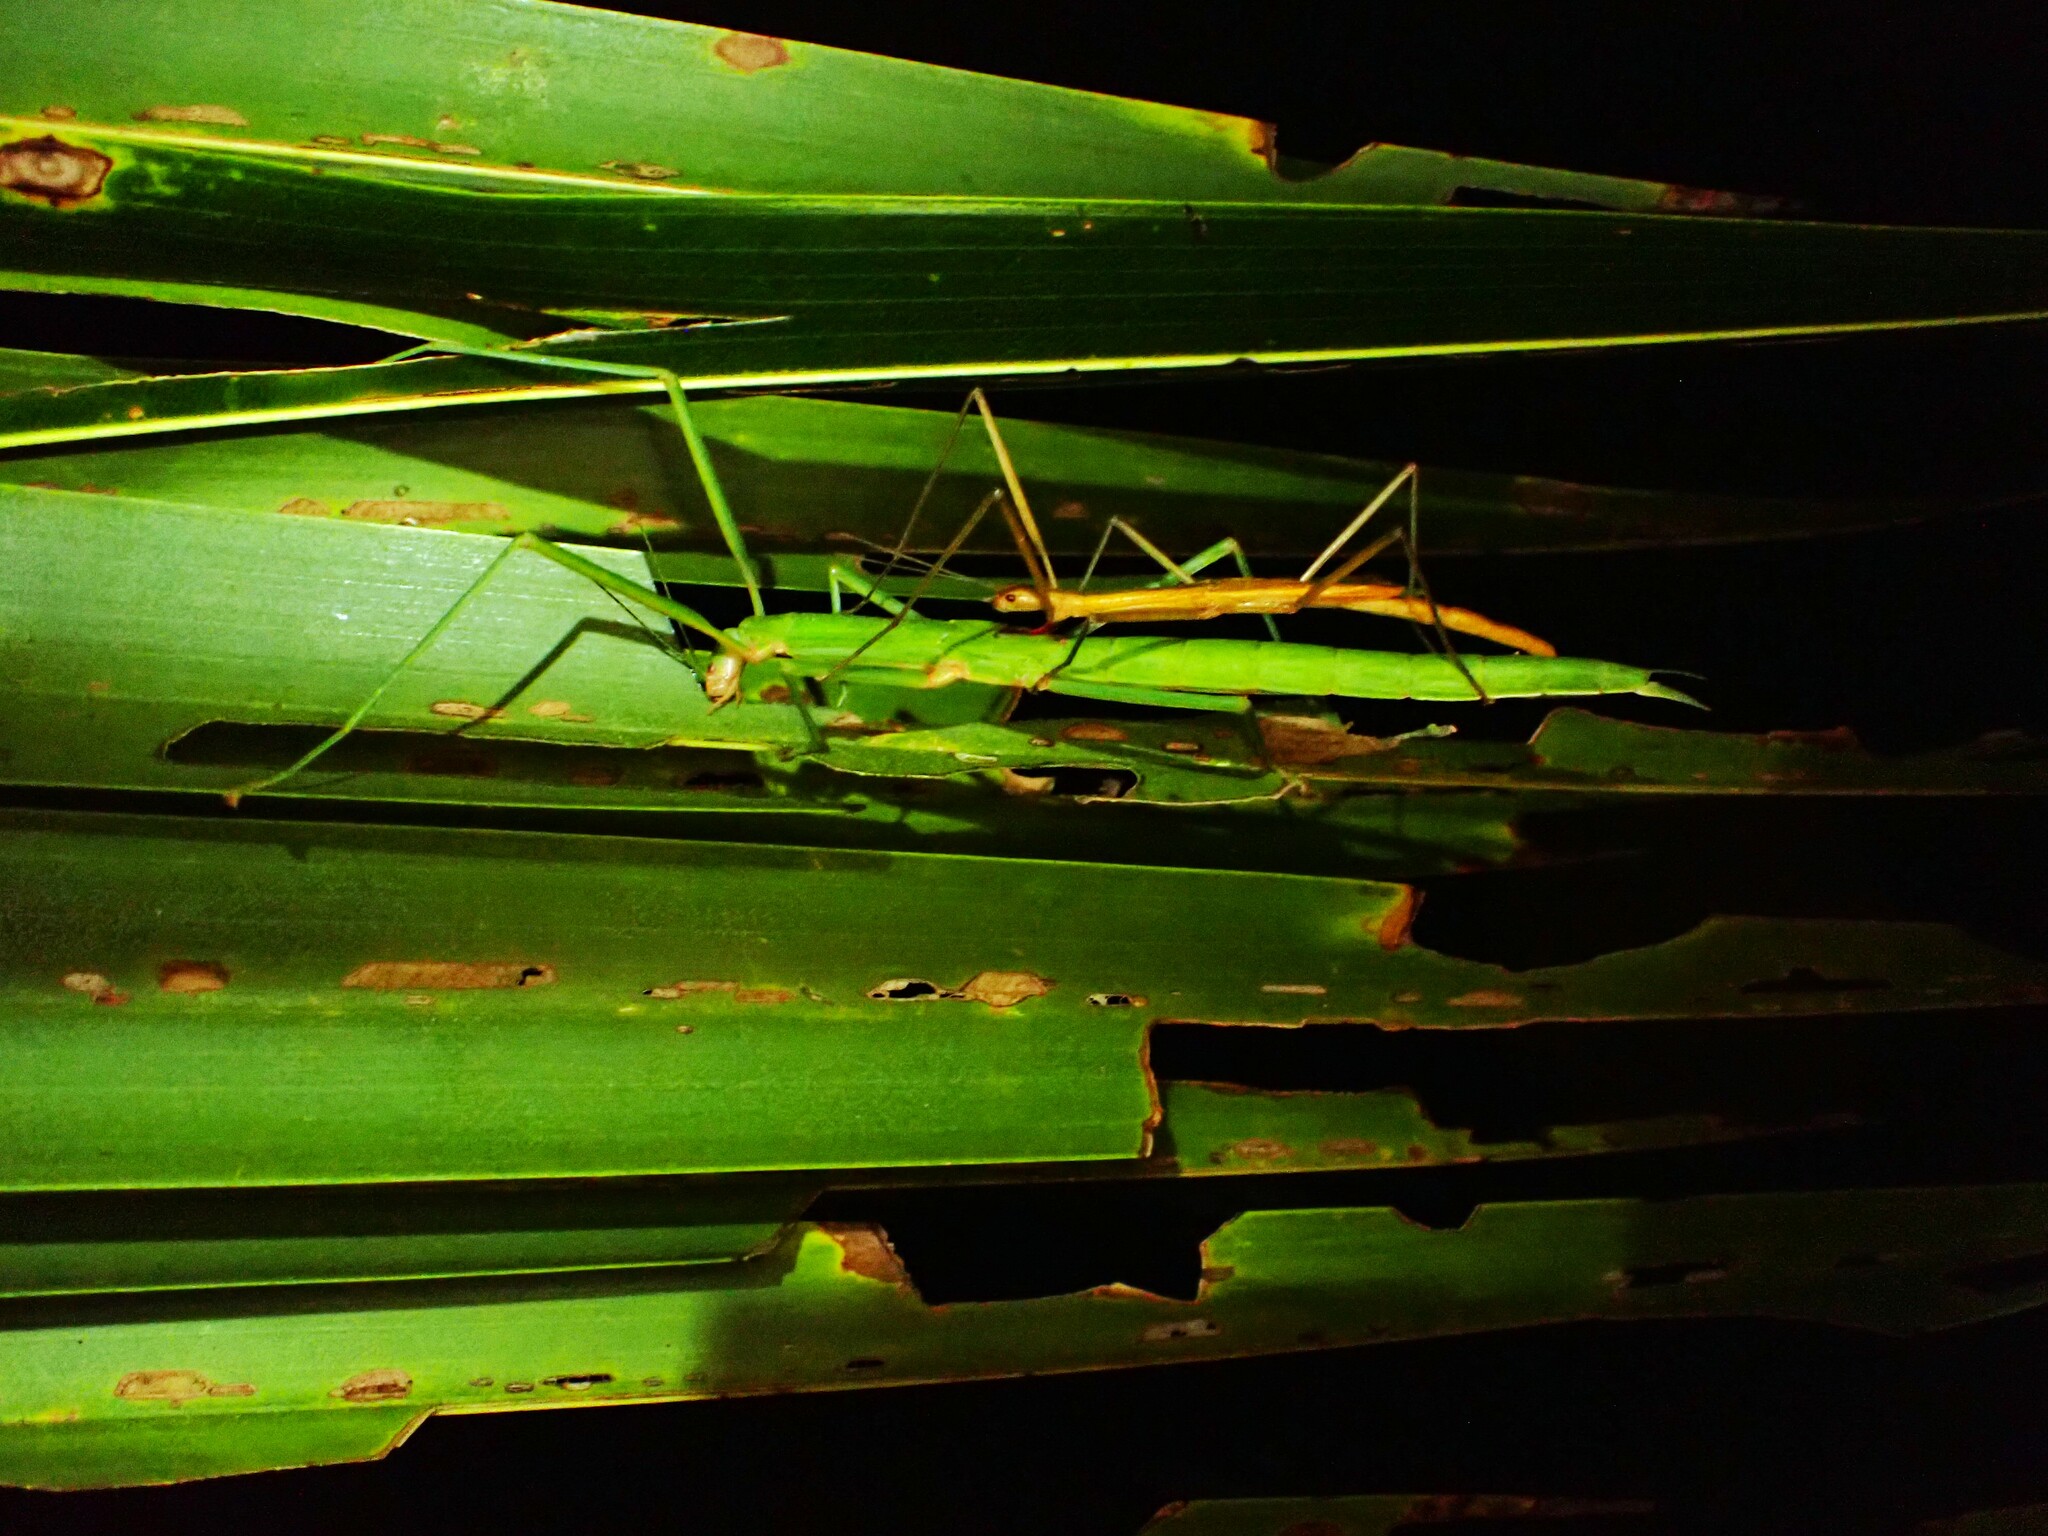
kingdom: Animalia
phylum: Arthropoda
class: Insecta
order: Phasmida
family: Phasmatidae
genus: Graeffea
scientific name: Graeffea crouanii
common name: Coconut stick insect
